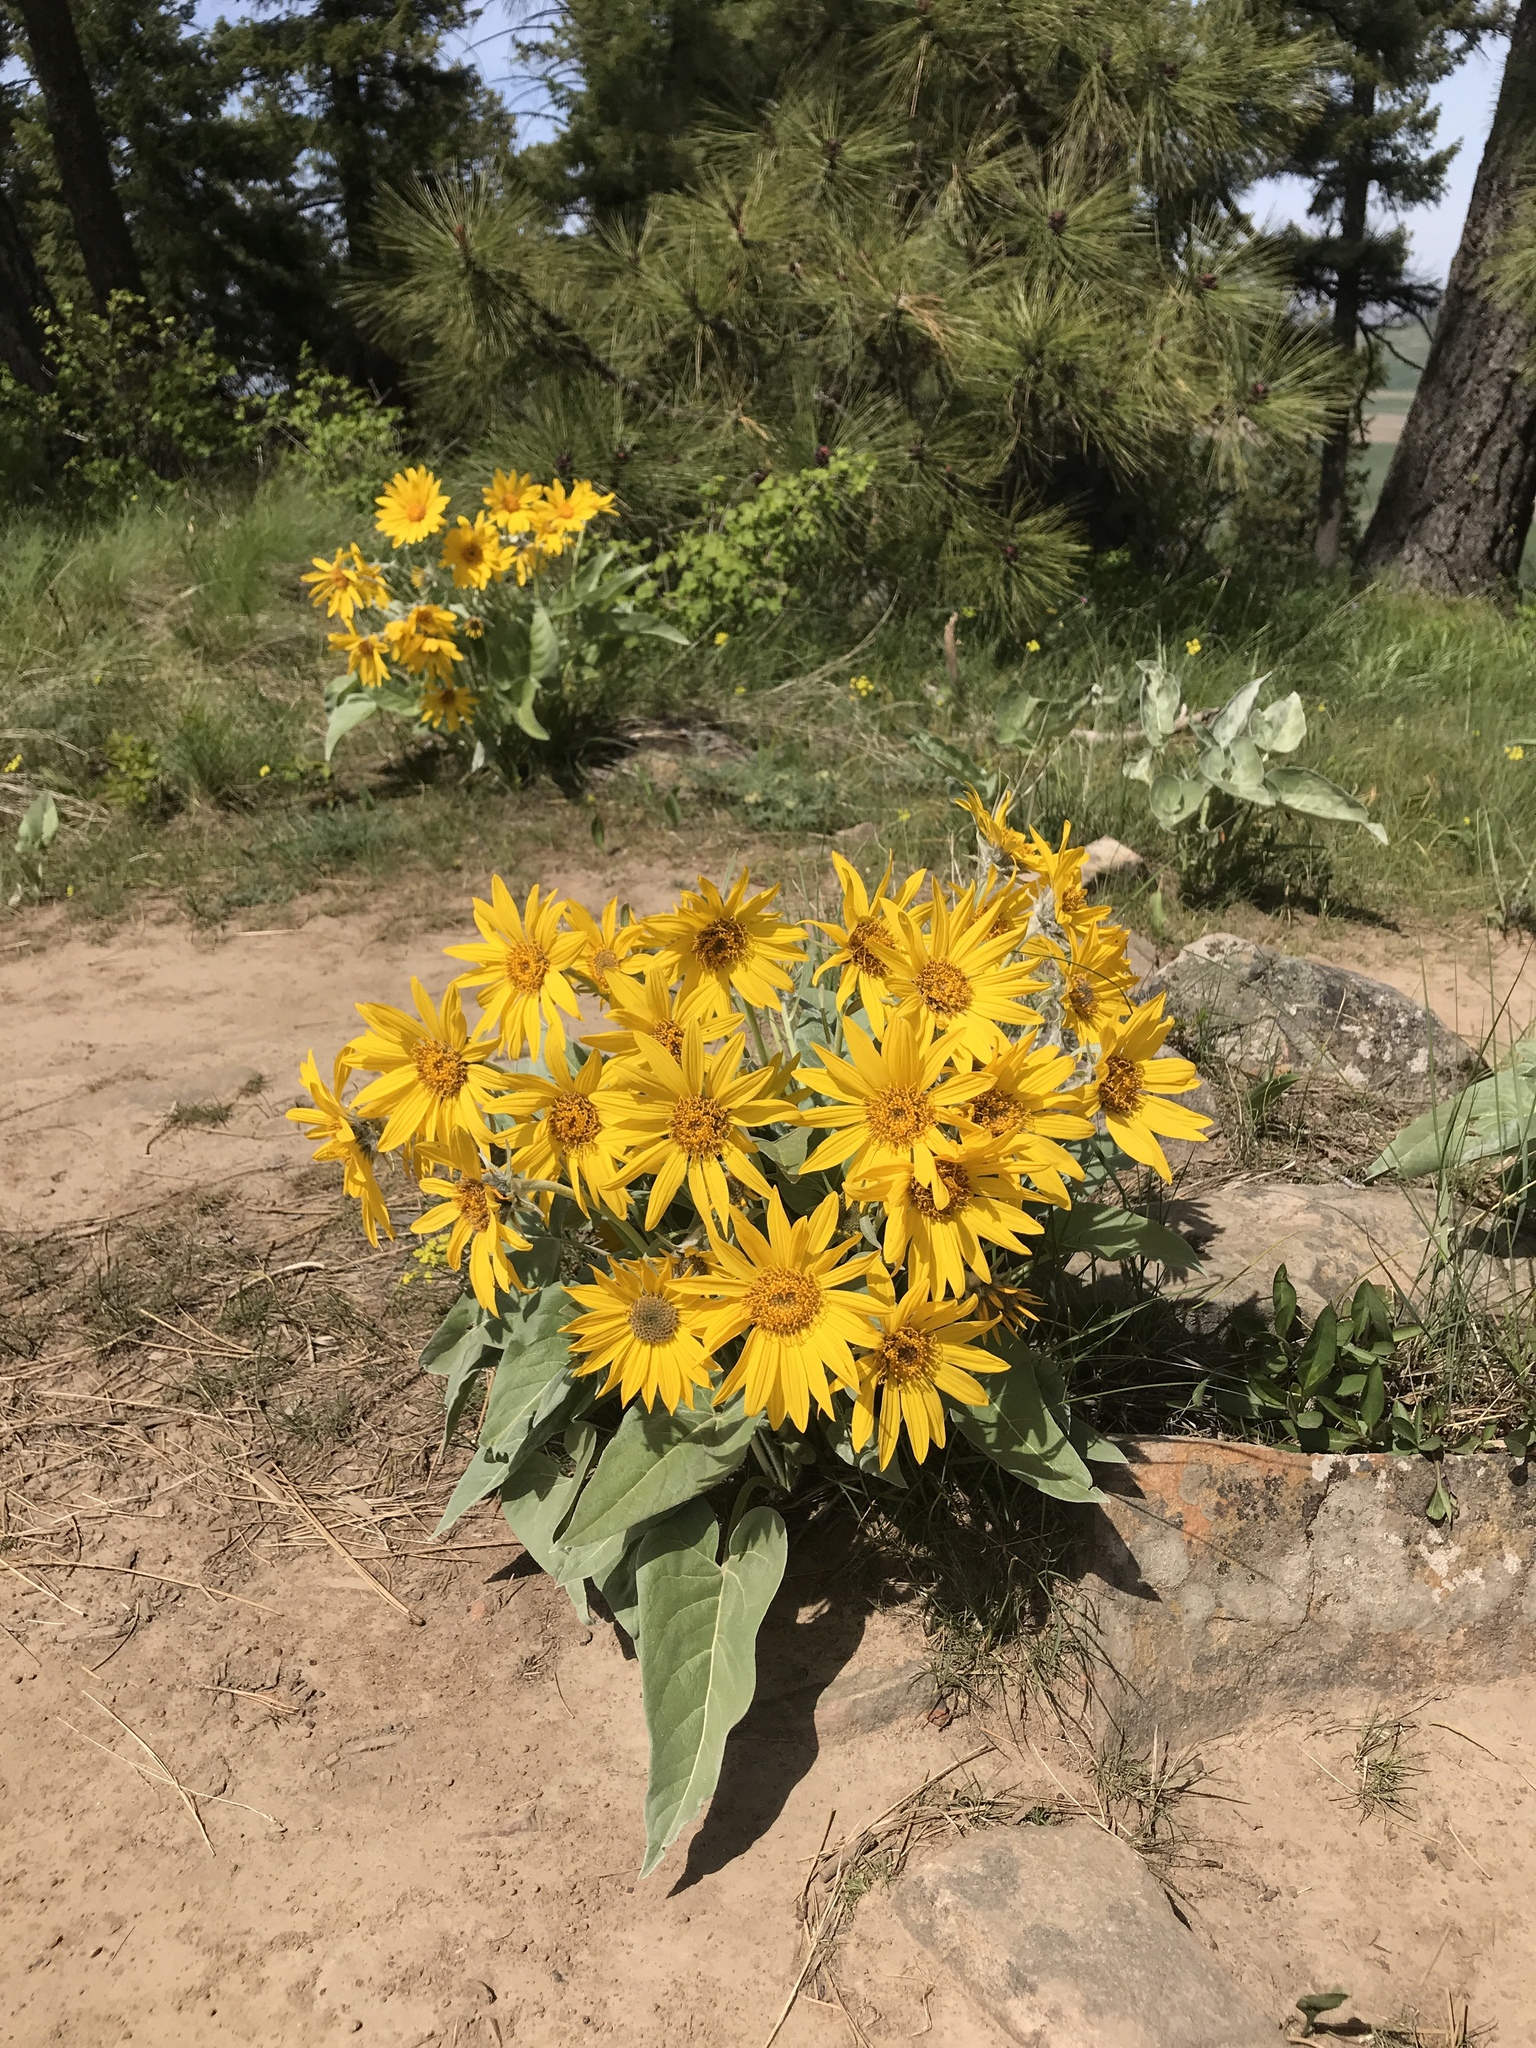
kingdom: Plantae
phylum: Tracheophyta
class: Magnoliopsida
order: Asterales
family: Asteraceae
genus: Wyethia
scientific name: Wyethia sagittata
